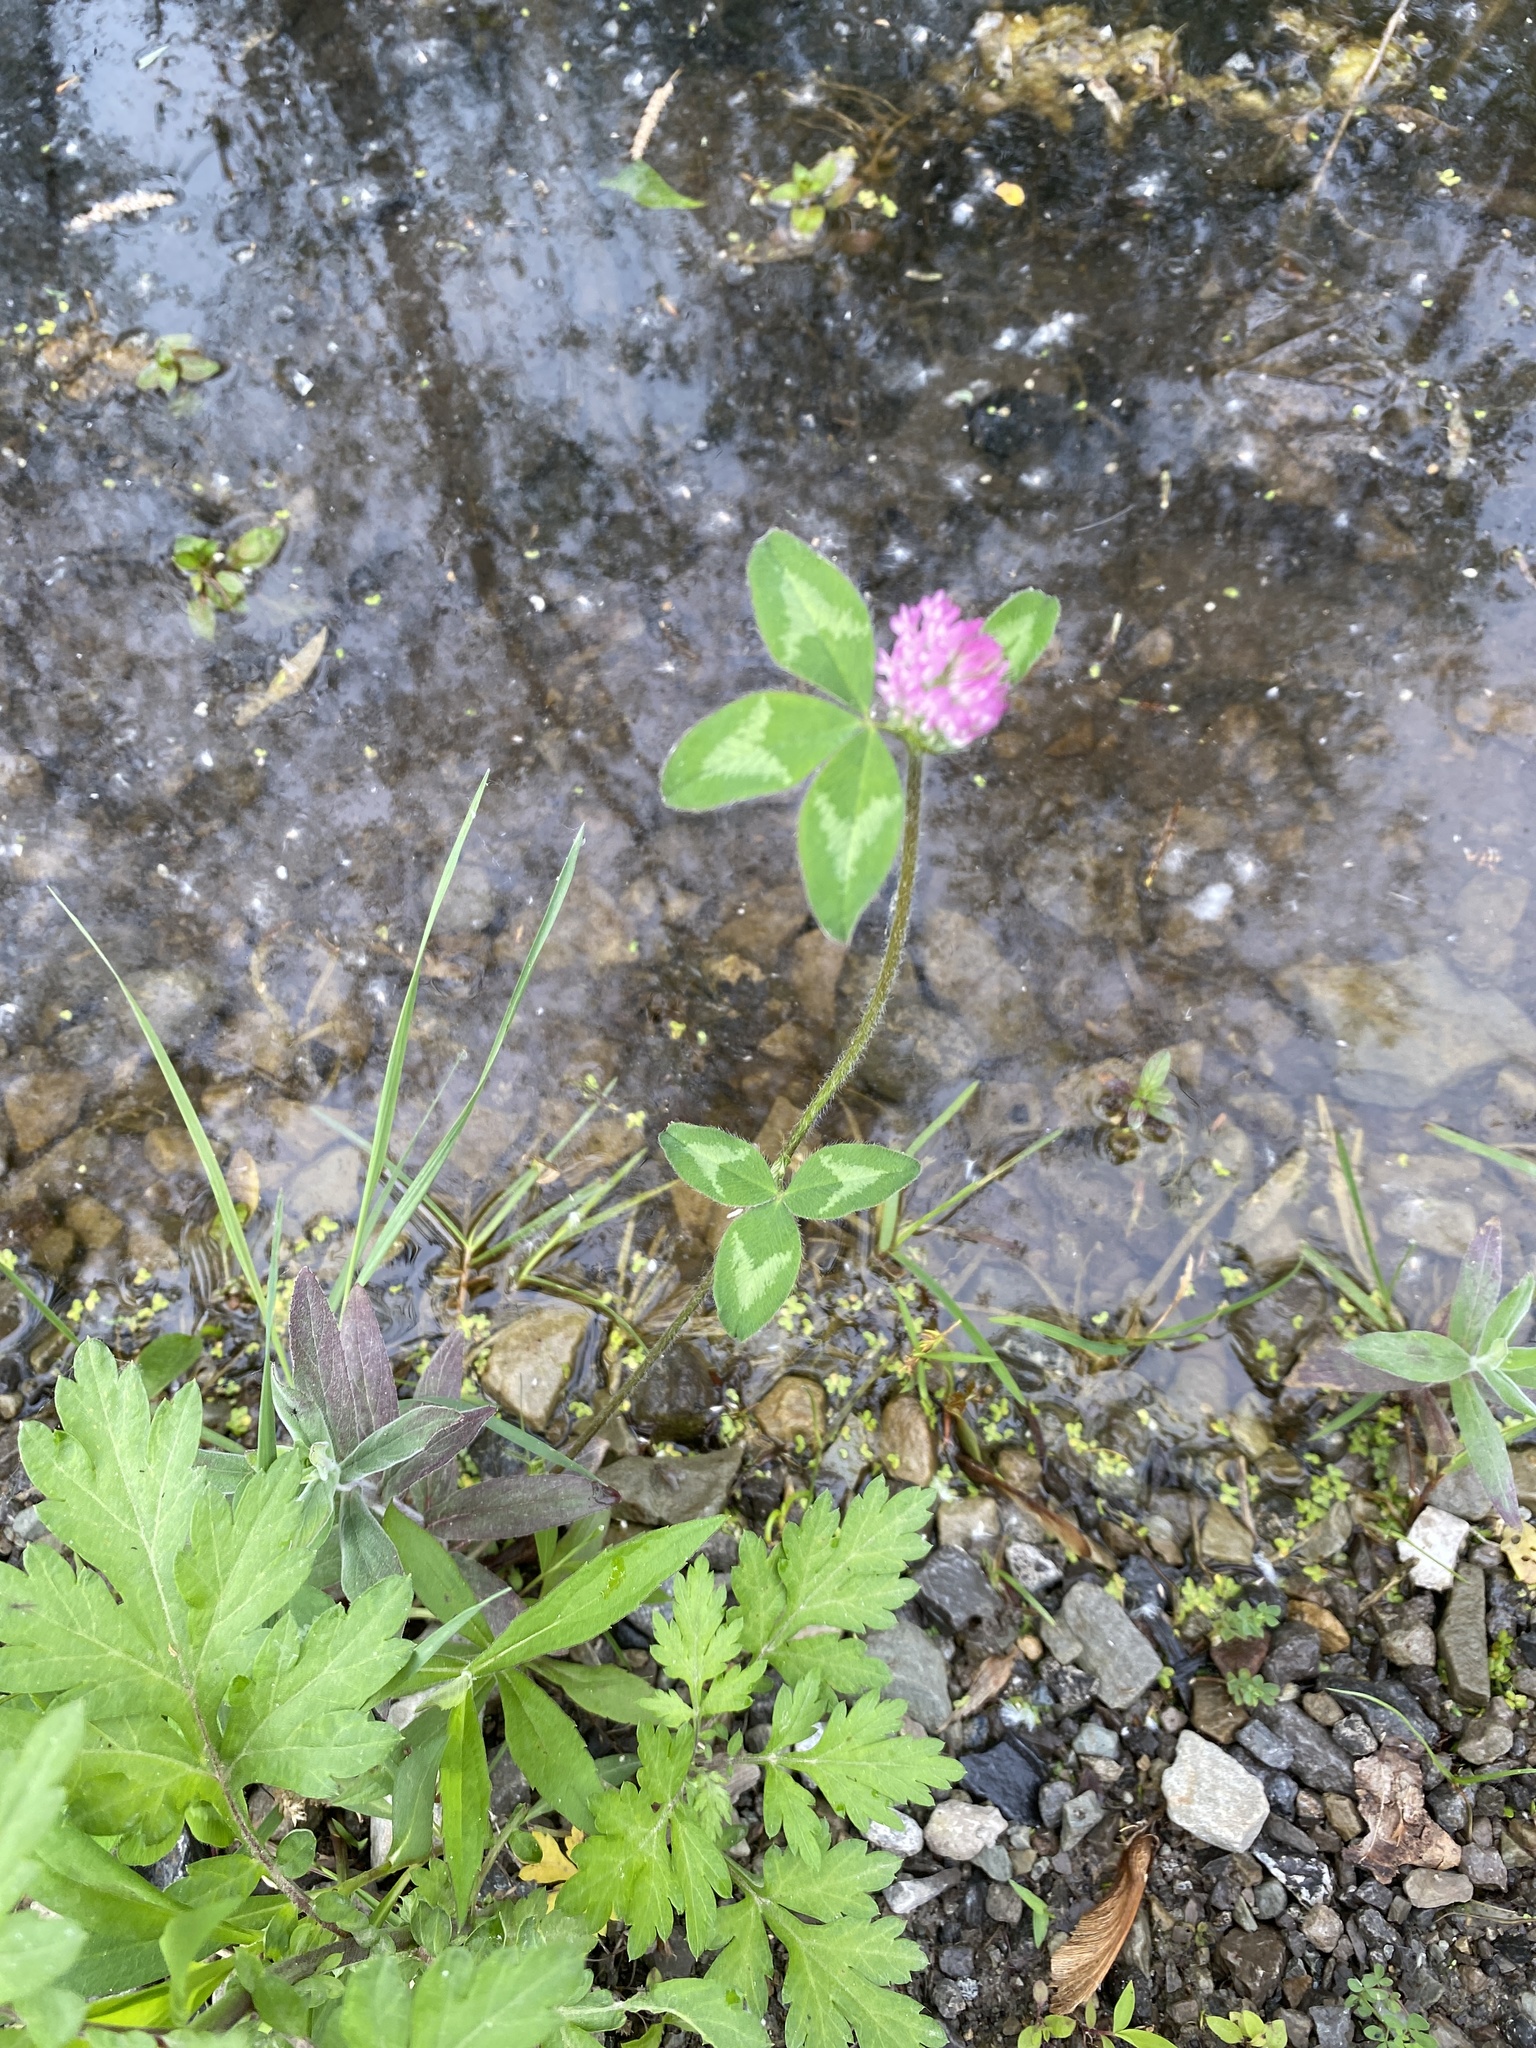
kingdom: Plantae
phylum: Tracheophyta
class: Magnoliopsida
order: Fabales
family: Fabaceae
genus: Trifolium
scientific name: Trifolium pratense
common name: Red clover
